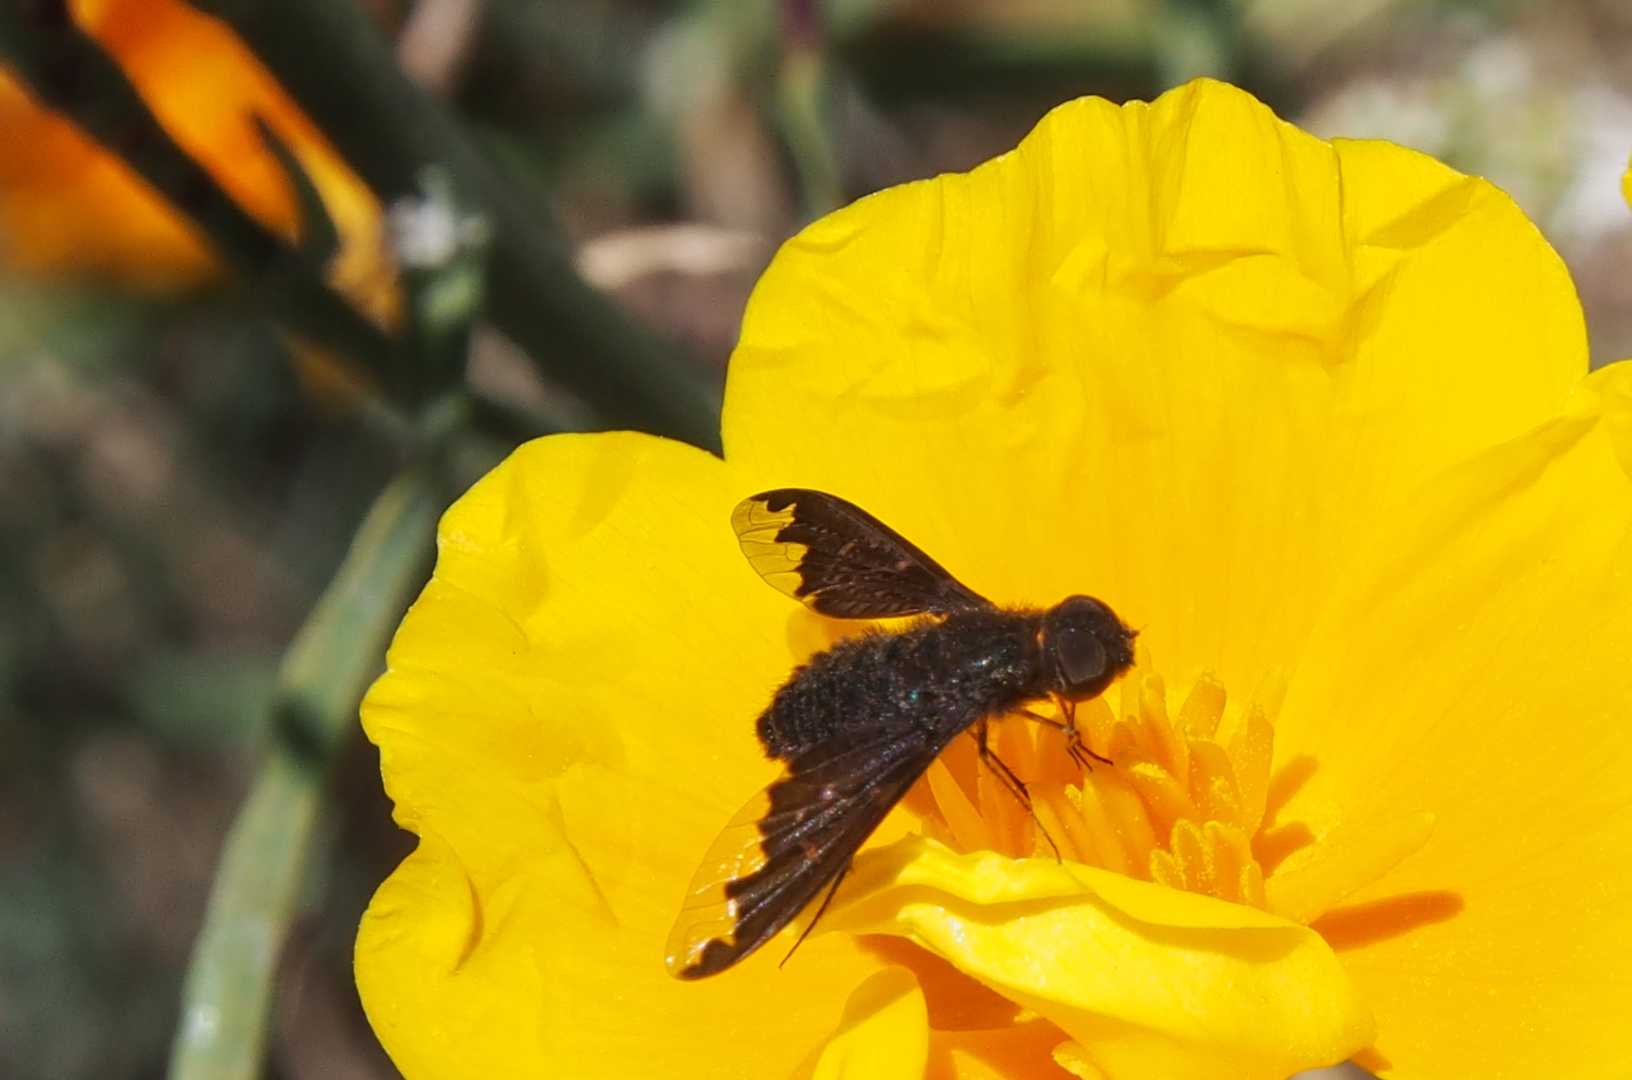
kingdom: Animalia
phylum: Arthropoda
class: Insecta
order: Diptera
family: Bombyliidae
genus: Hemipenthes
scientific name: Hemipenthes sinuosus
